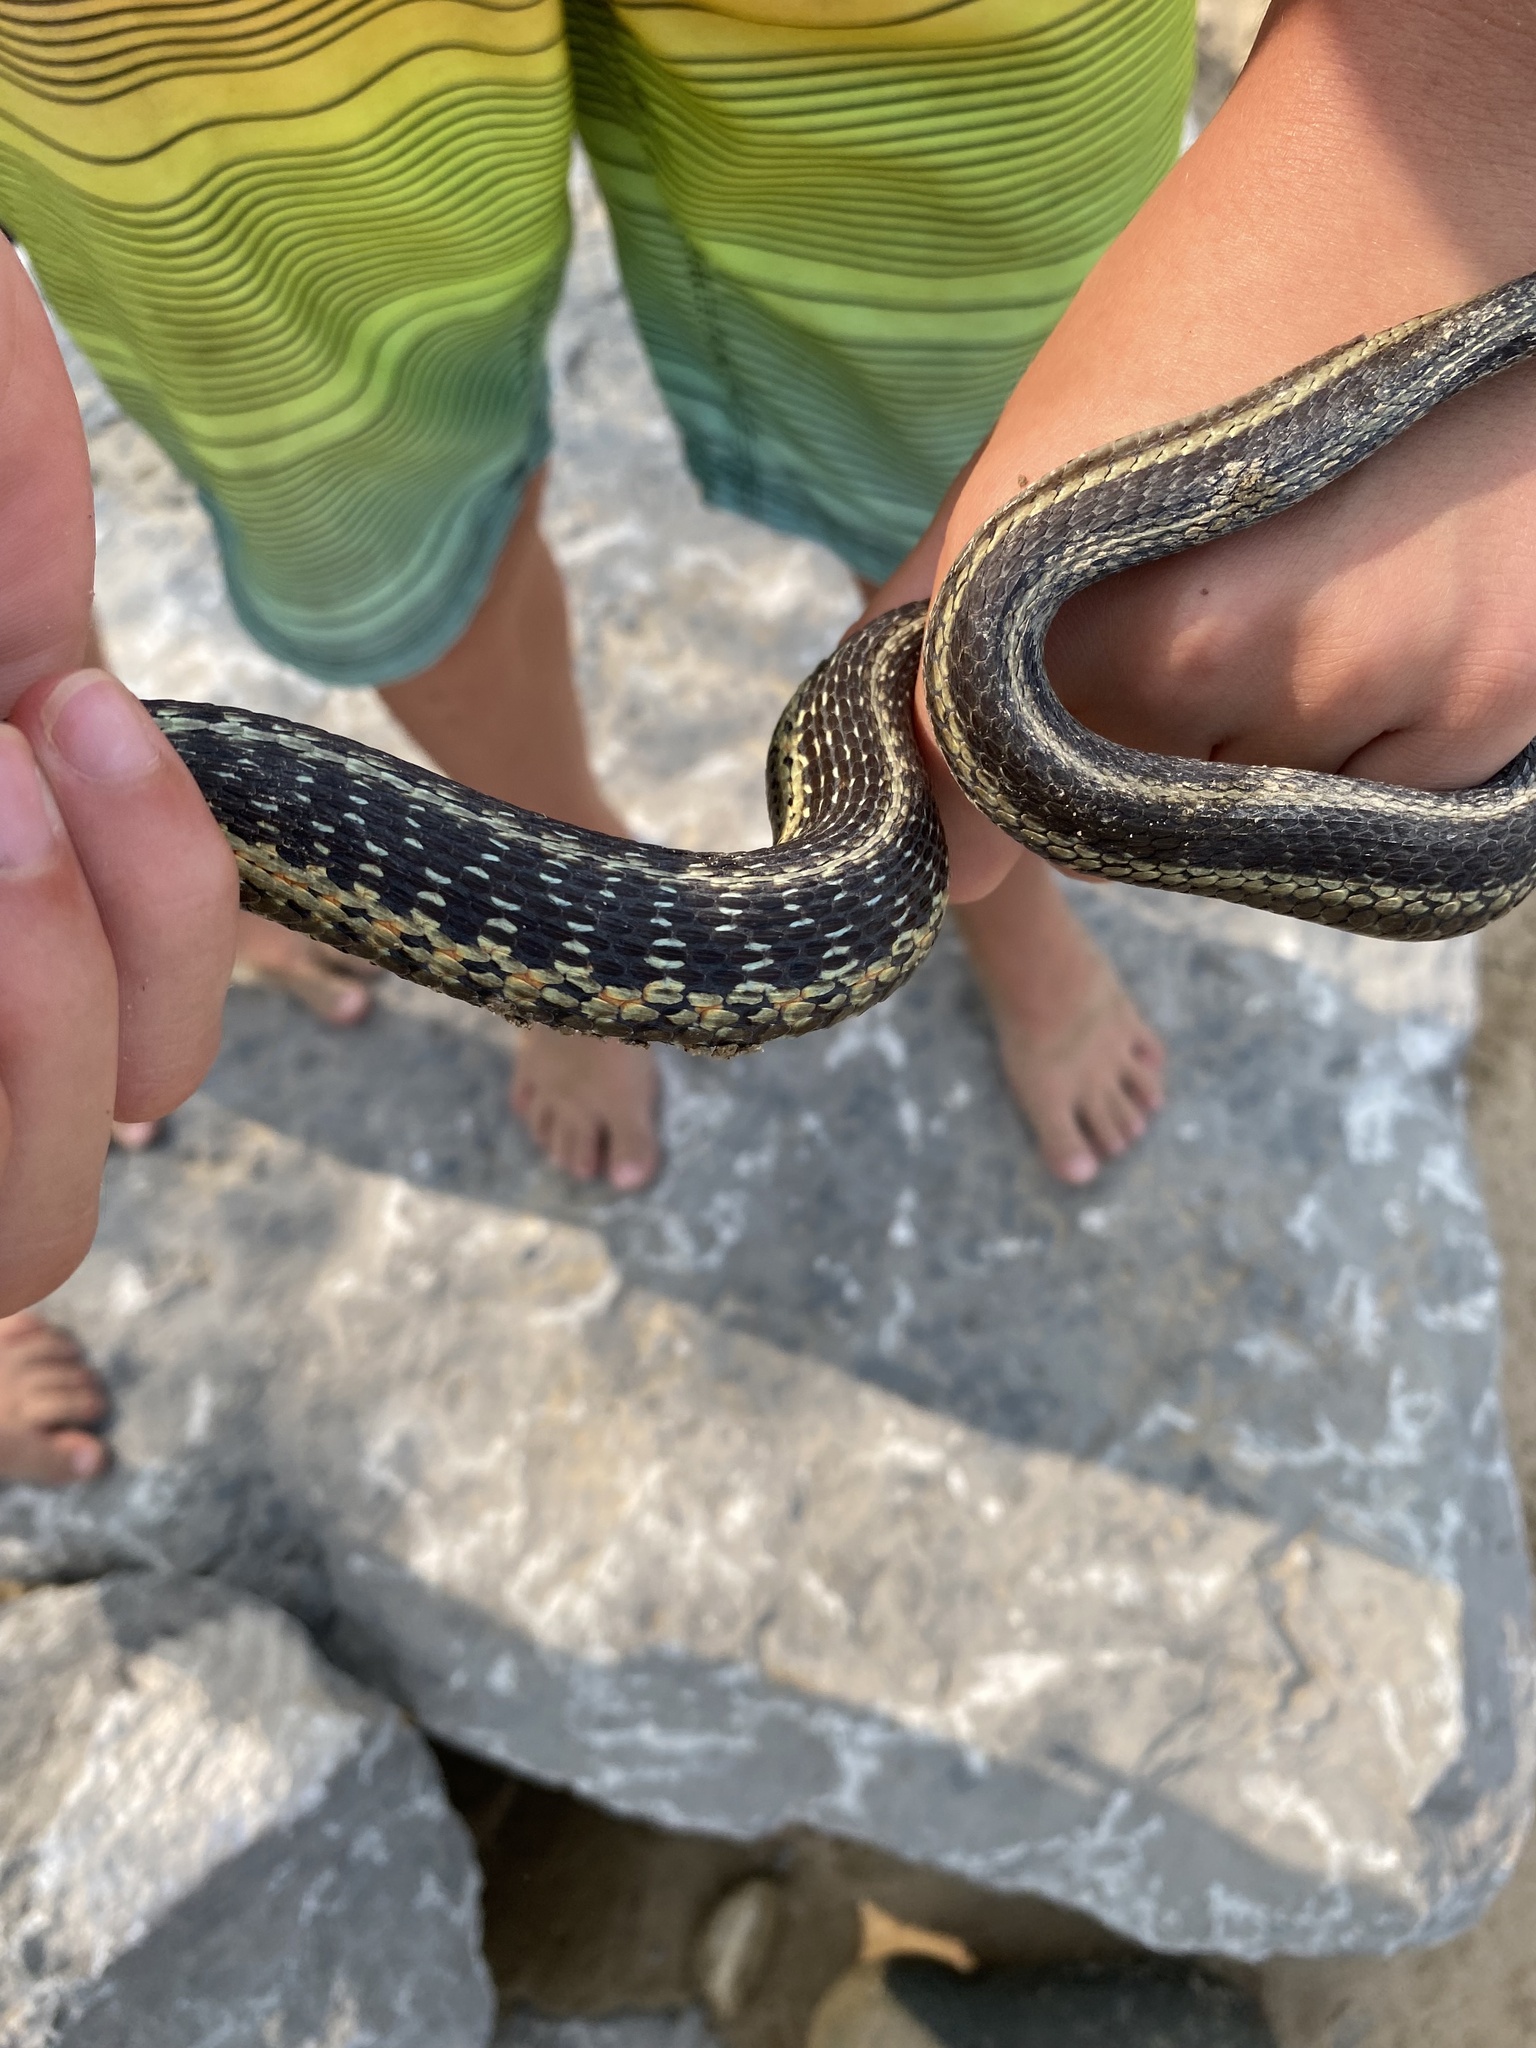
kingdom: Animalia
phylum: Chordata
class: Squamata
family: Colubridae
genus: Thamnophis
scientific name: Thamnophis sirtalis
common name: Common garter snake
